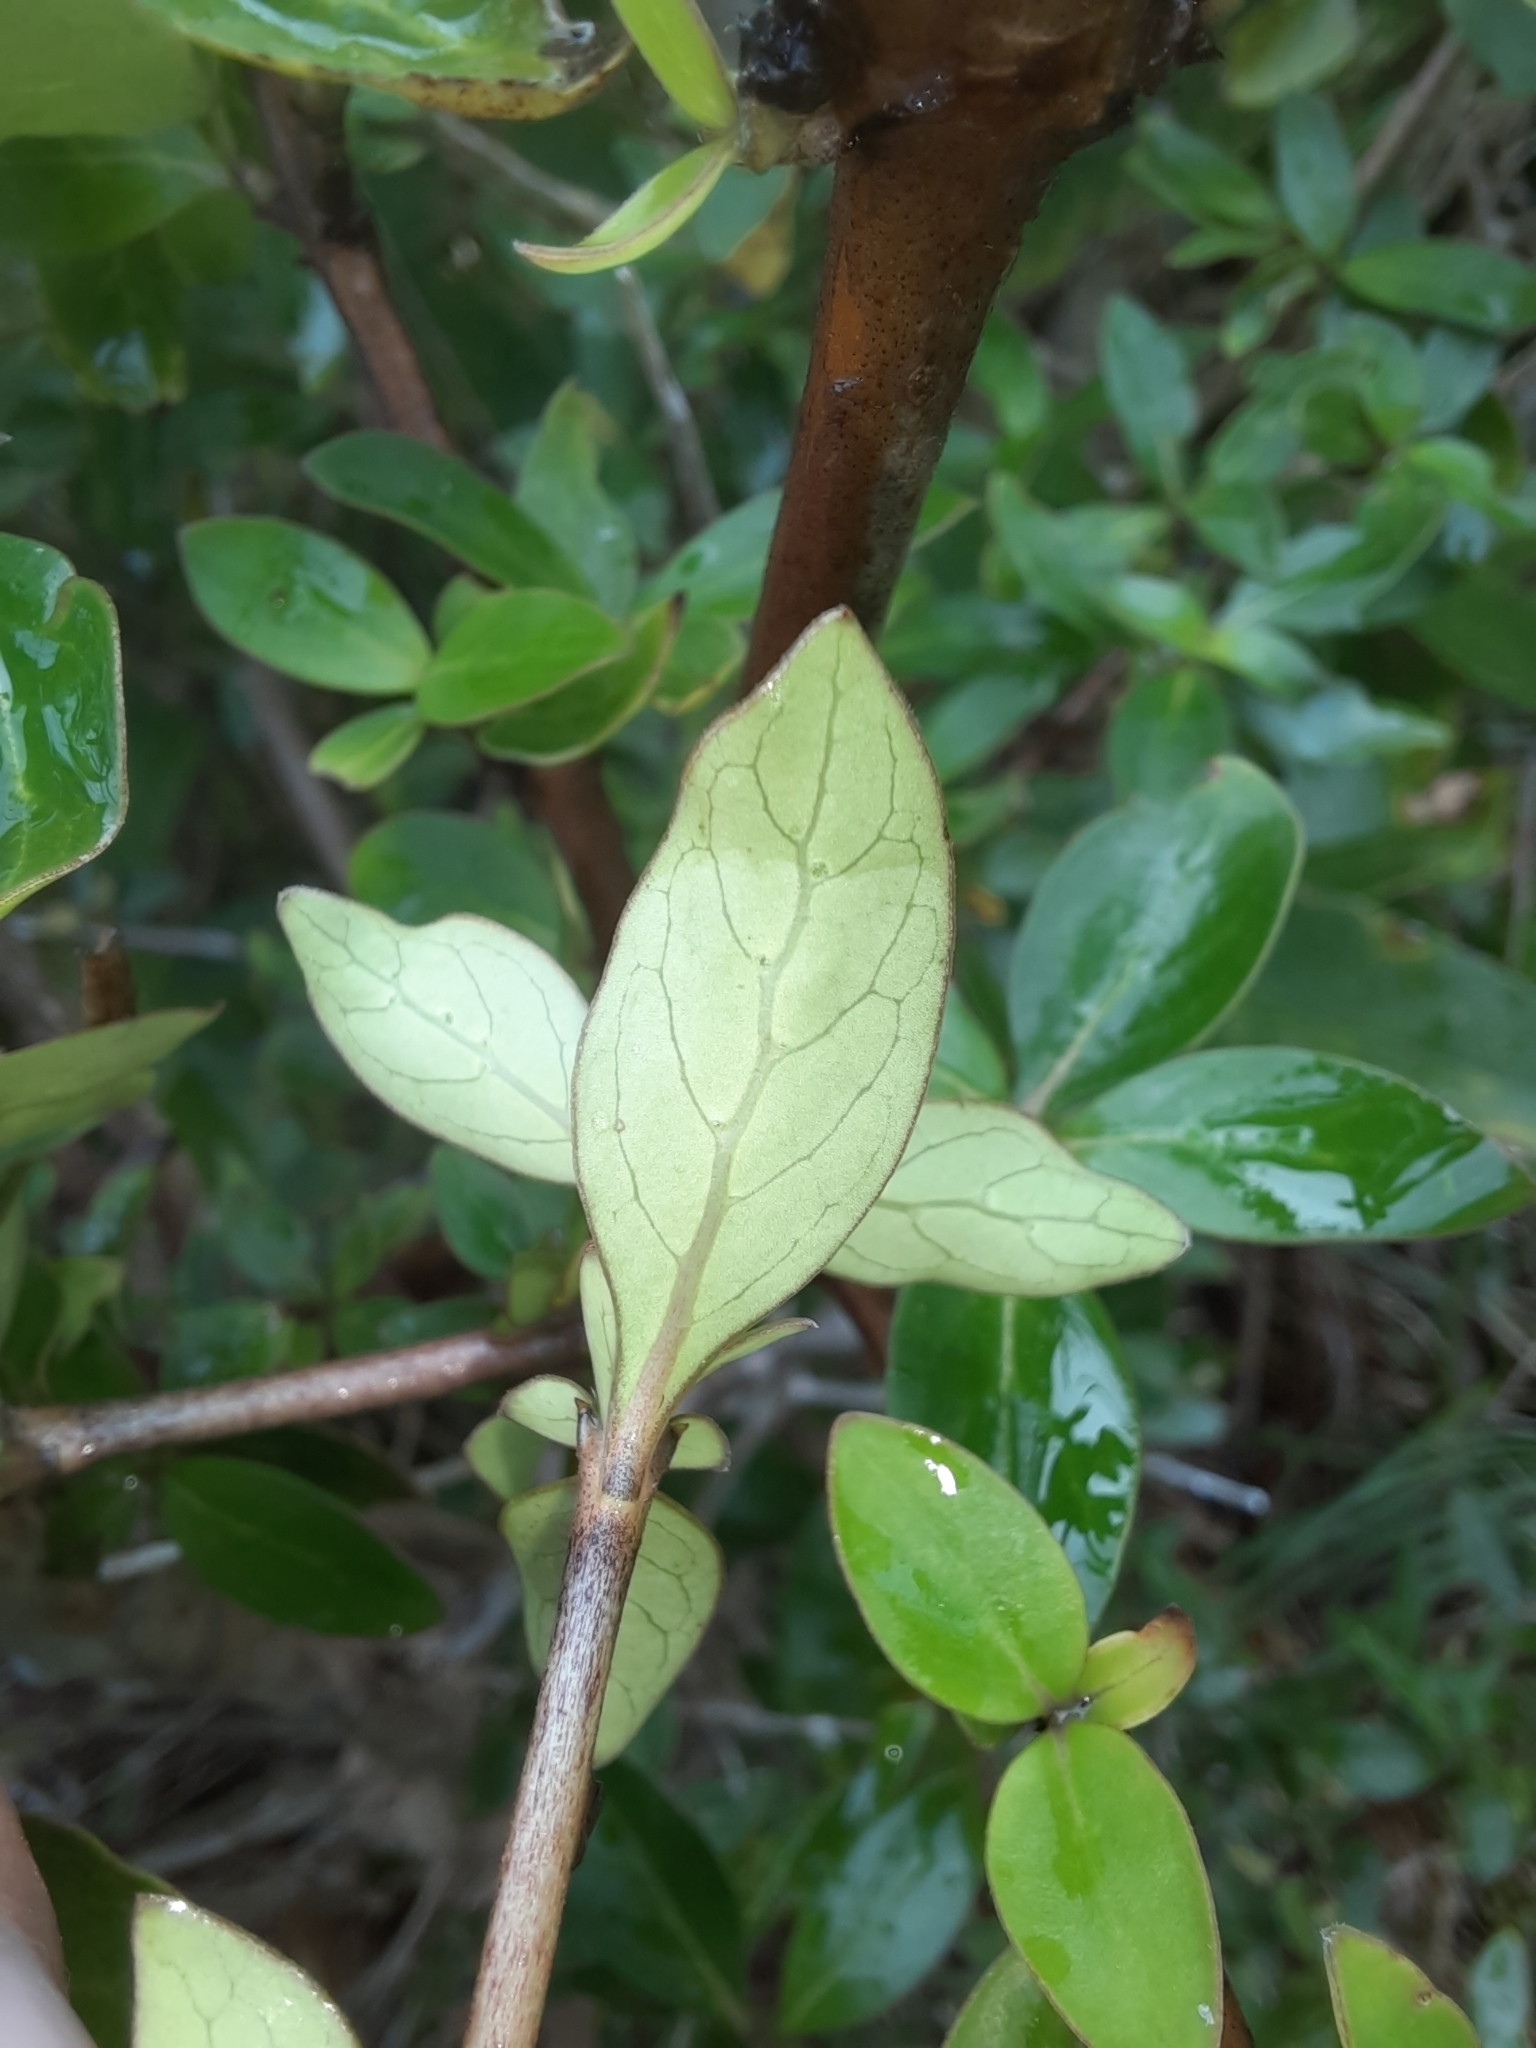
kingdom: Plantae
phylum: Tracheophyta
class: Magnoliopsida
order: Gentianales
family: Rubiaceae
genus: Coprosma
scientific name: Coprosma cunninghamii
